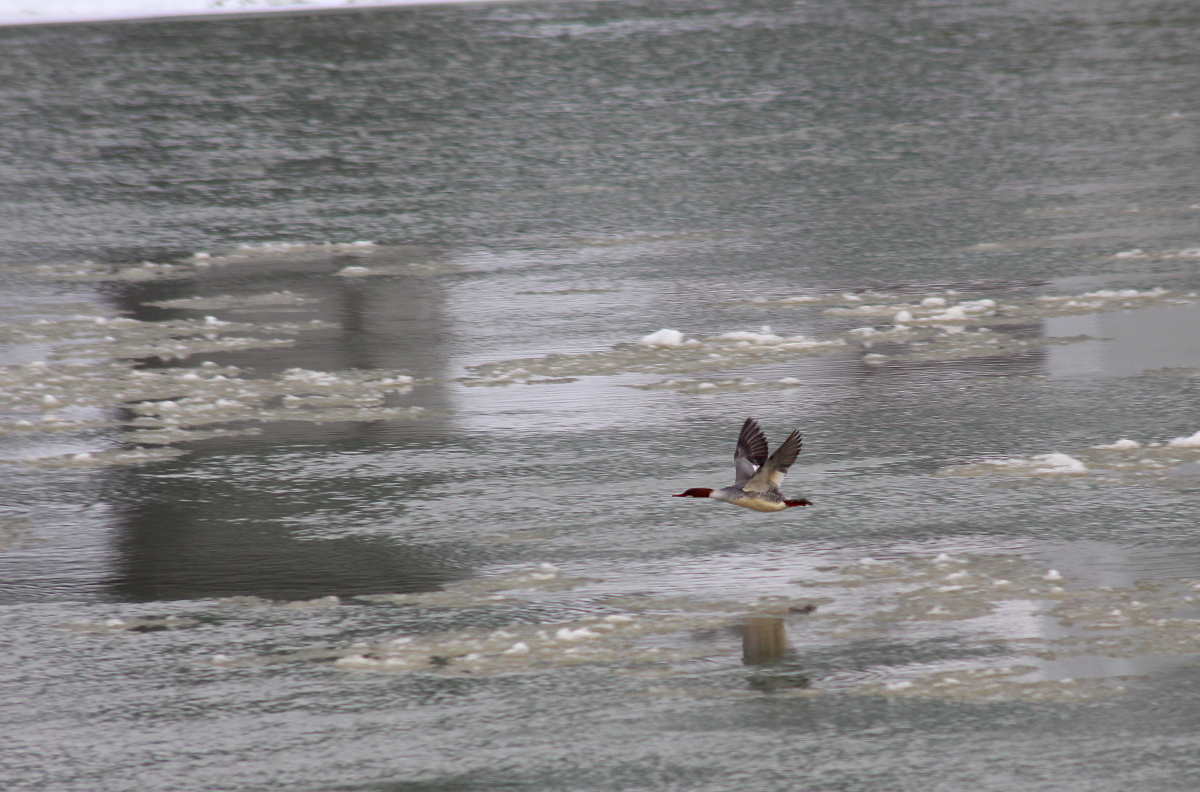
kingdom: Animalia
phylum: Chordata
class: Aves
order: Anseriformes
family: Anatidae
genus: Mergus
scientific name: Mergus merganser
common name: Common merganser
